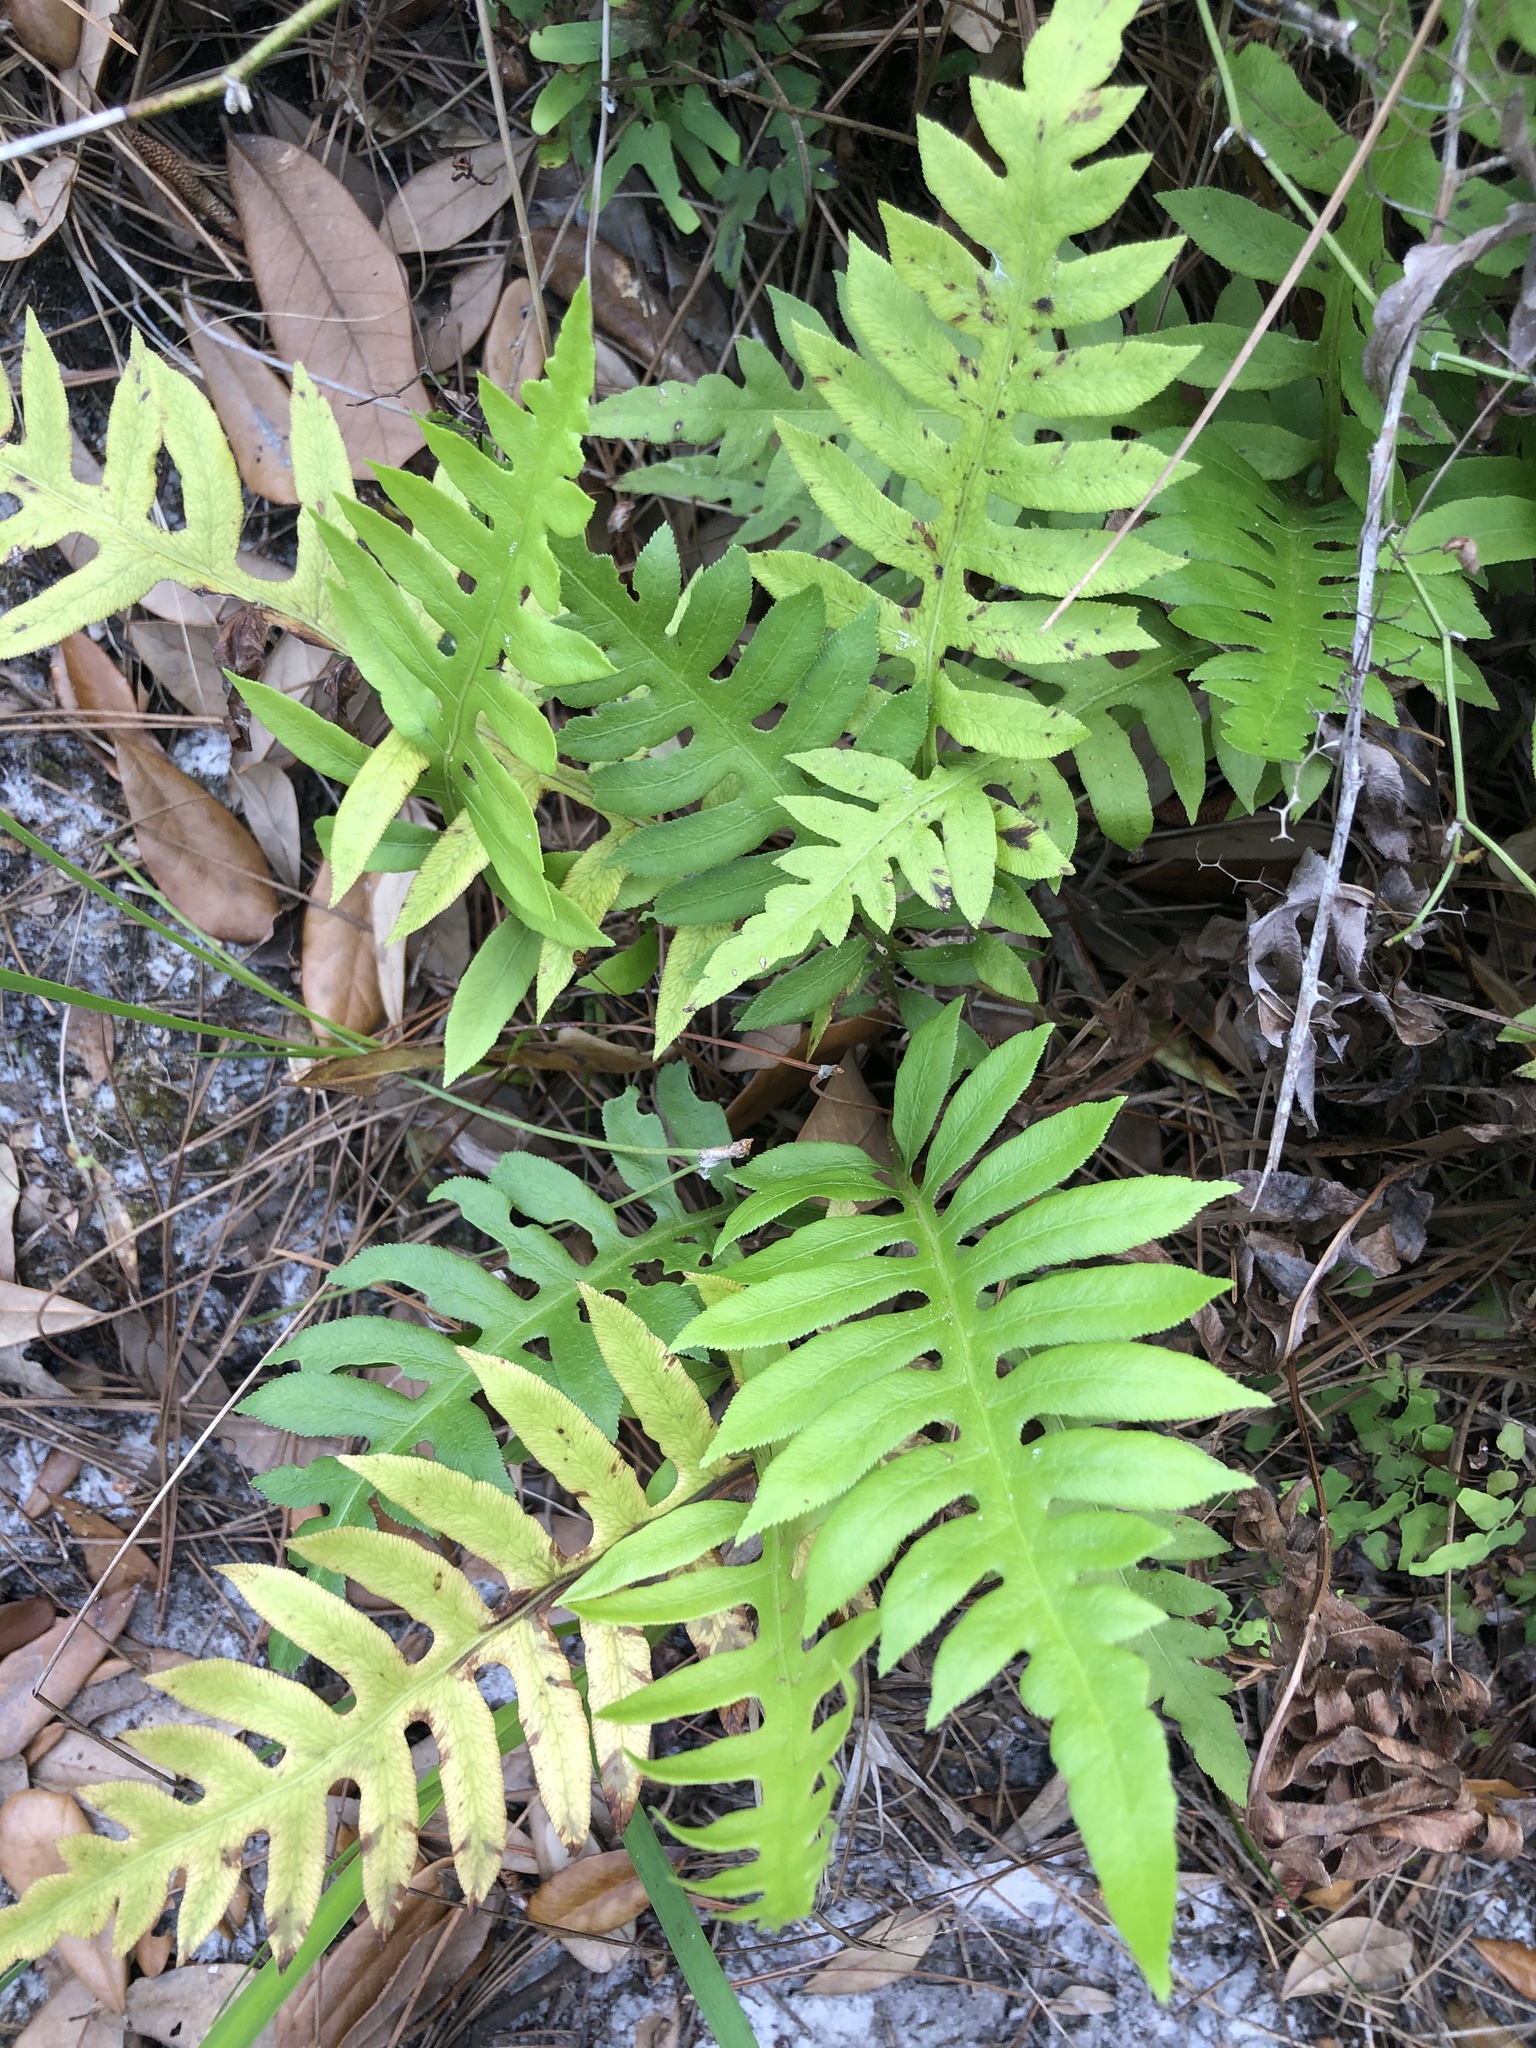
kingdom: Plantae
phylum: Tracheophyta
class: Polypodiopsida
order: Polypodiales
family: Blechnaceae
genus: Lorinseria
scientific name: Lorinseria areolata
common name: Dwarf chain fern
